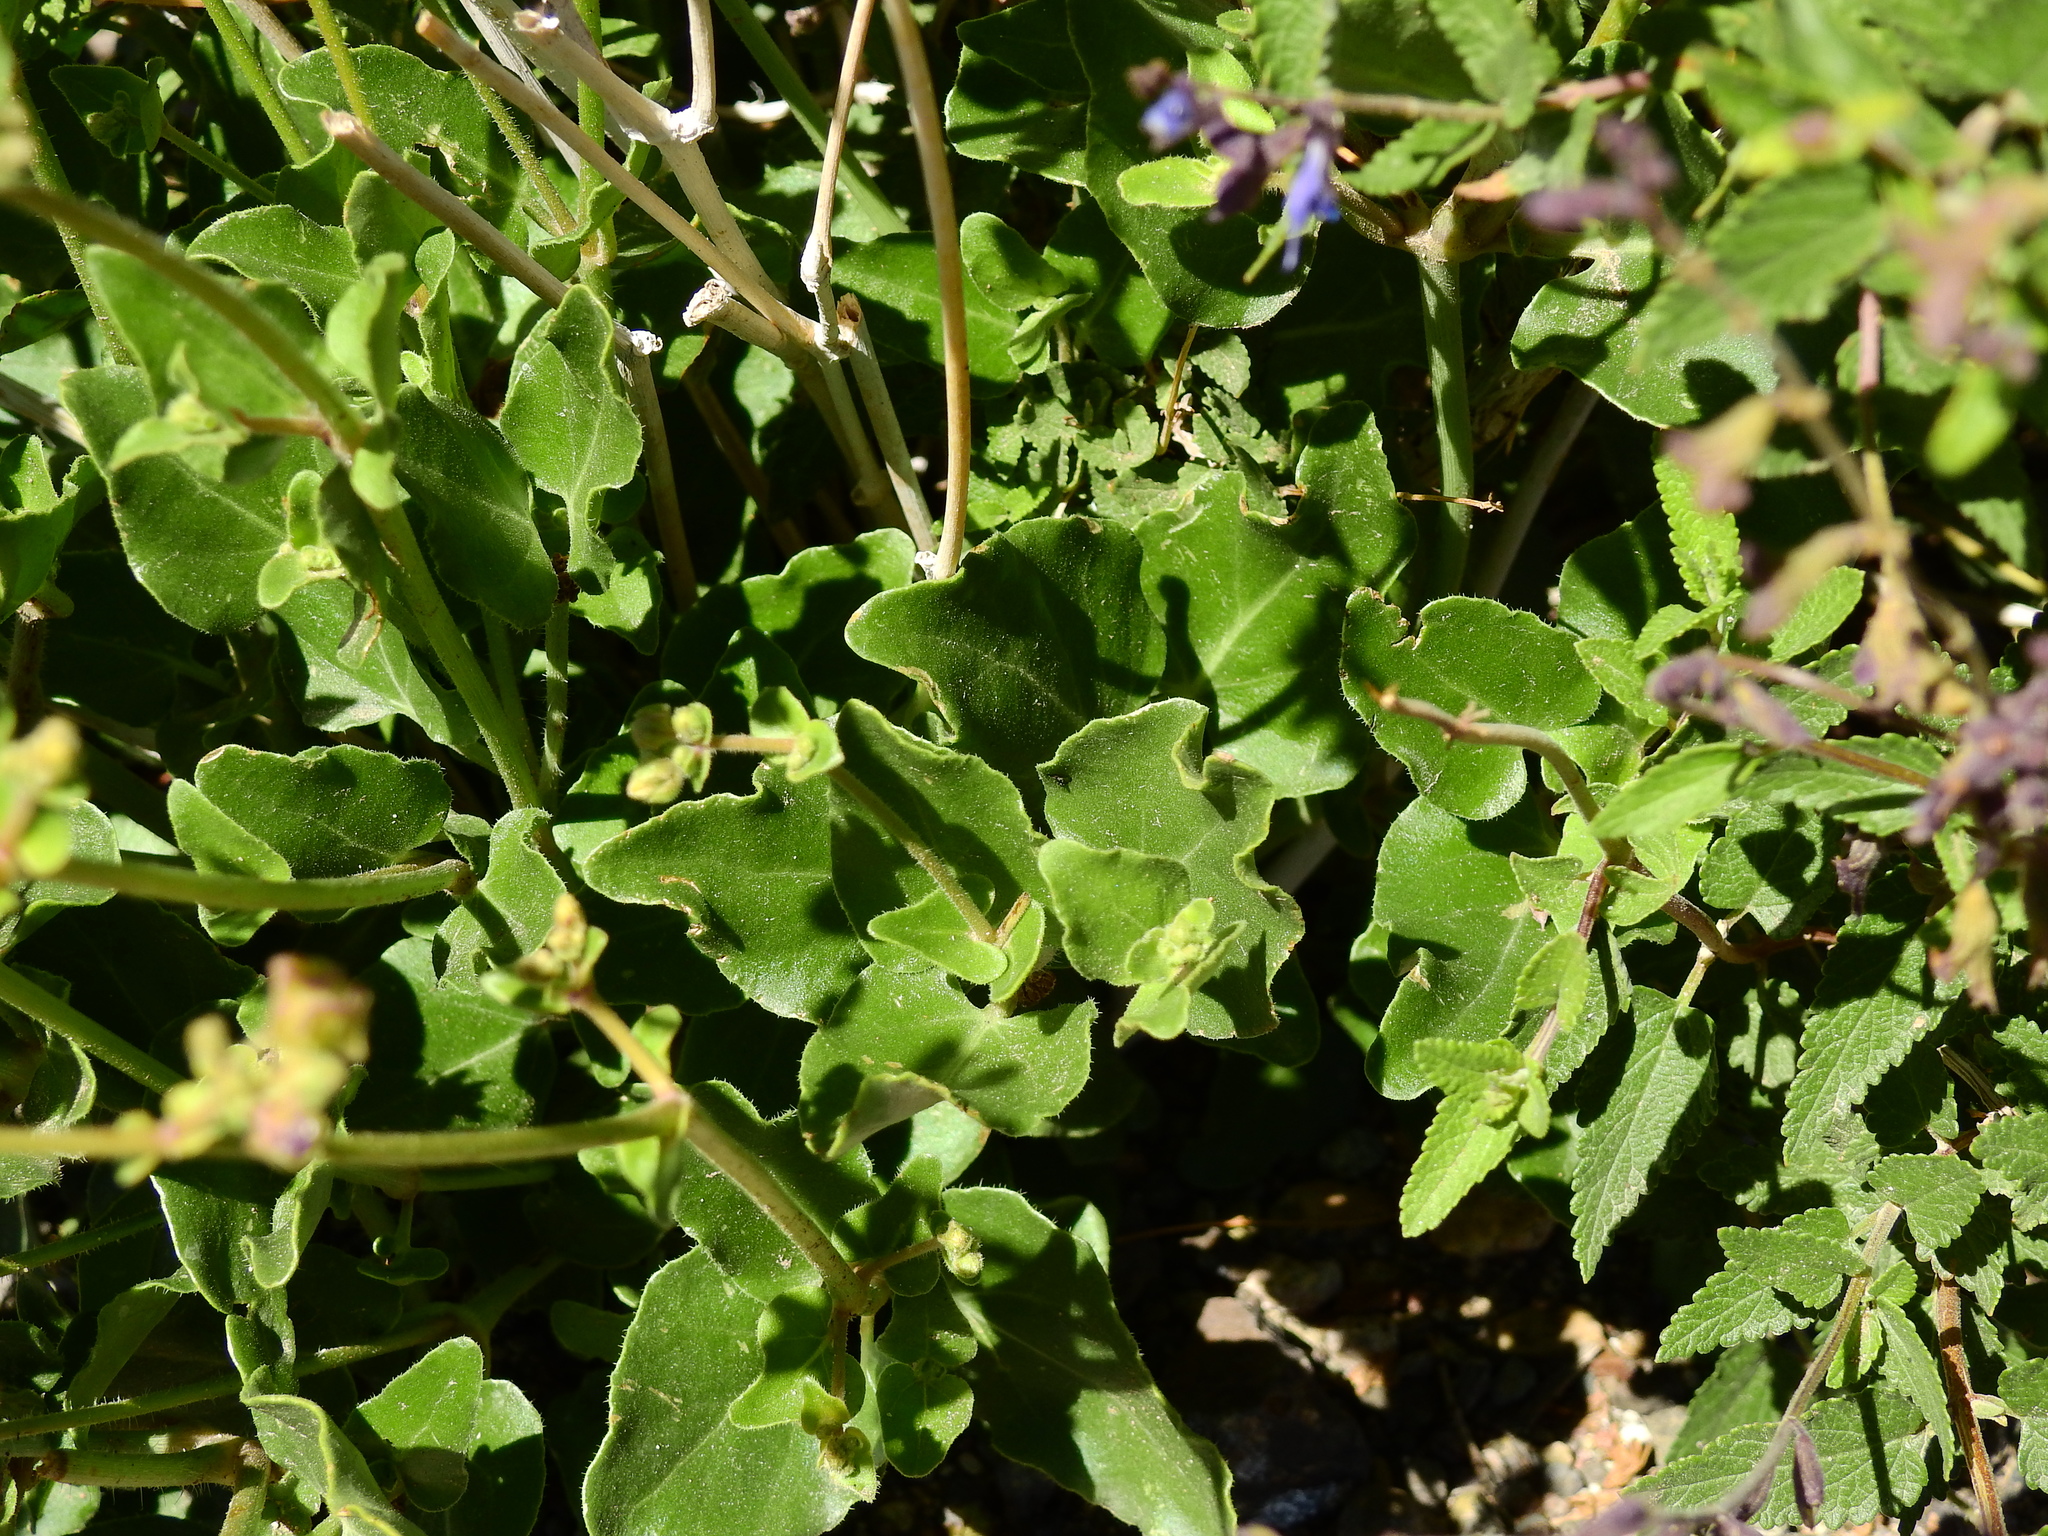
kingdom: Plantae
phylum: Tracheophyta
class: Magnoliopsida
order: Caryophyllales
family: Nyctaginaceae
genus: Mirabilis
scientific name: Mirabilis ovata
